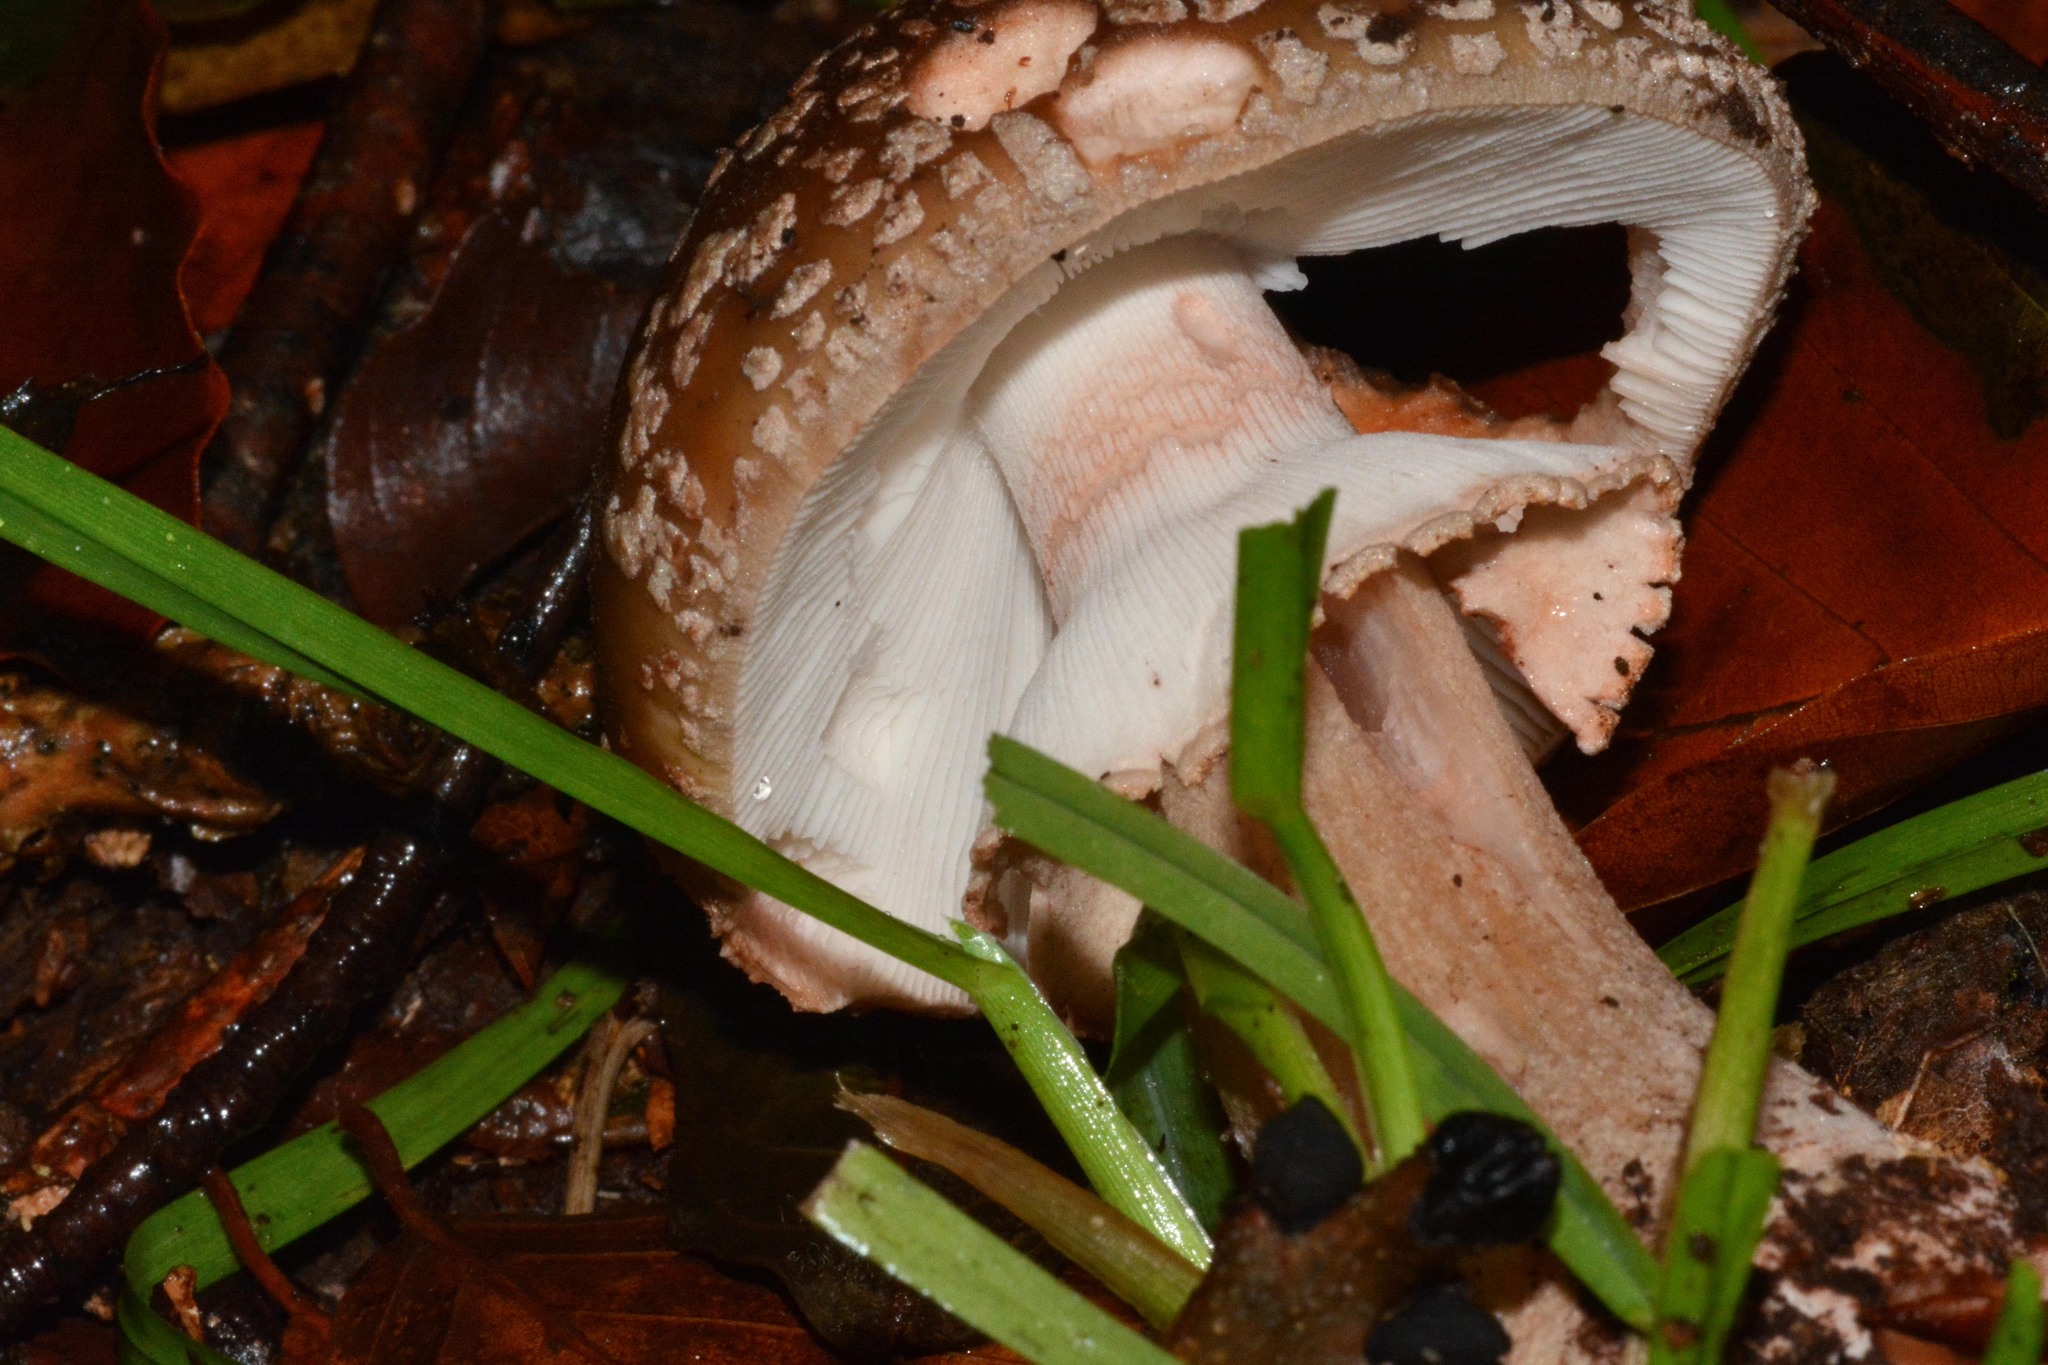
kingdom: Fungi
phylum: Basidiomycota
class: Agaricomycetes
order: Agaricales
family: Amanitaceae
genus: Amanita
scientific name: Amanita rubescens
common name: Blusher
